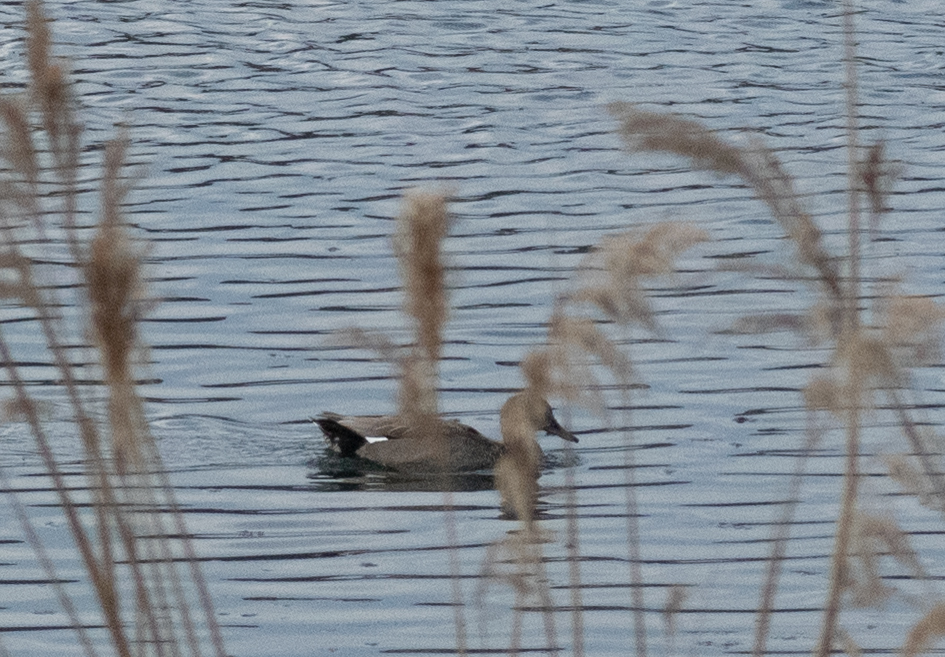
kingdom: Animalia
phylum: Chordata
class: Aves
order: Anseriformes
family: Anatidae
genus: Mareca
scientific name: Mareca strepera
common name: Gadwall
